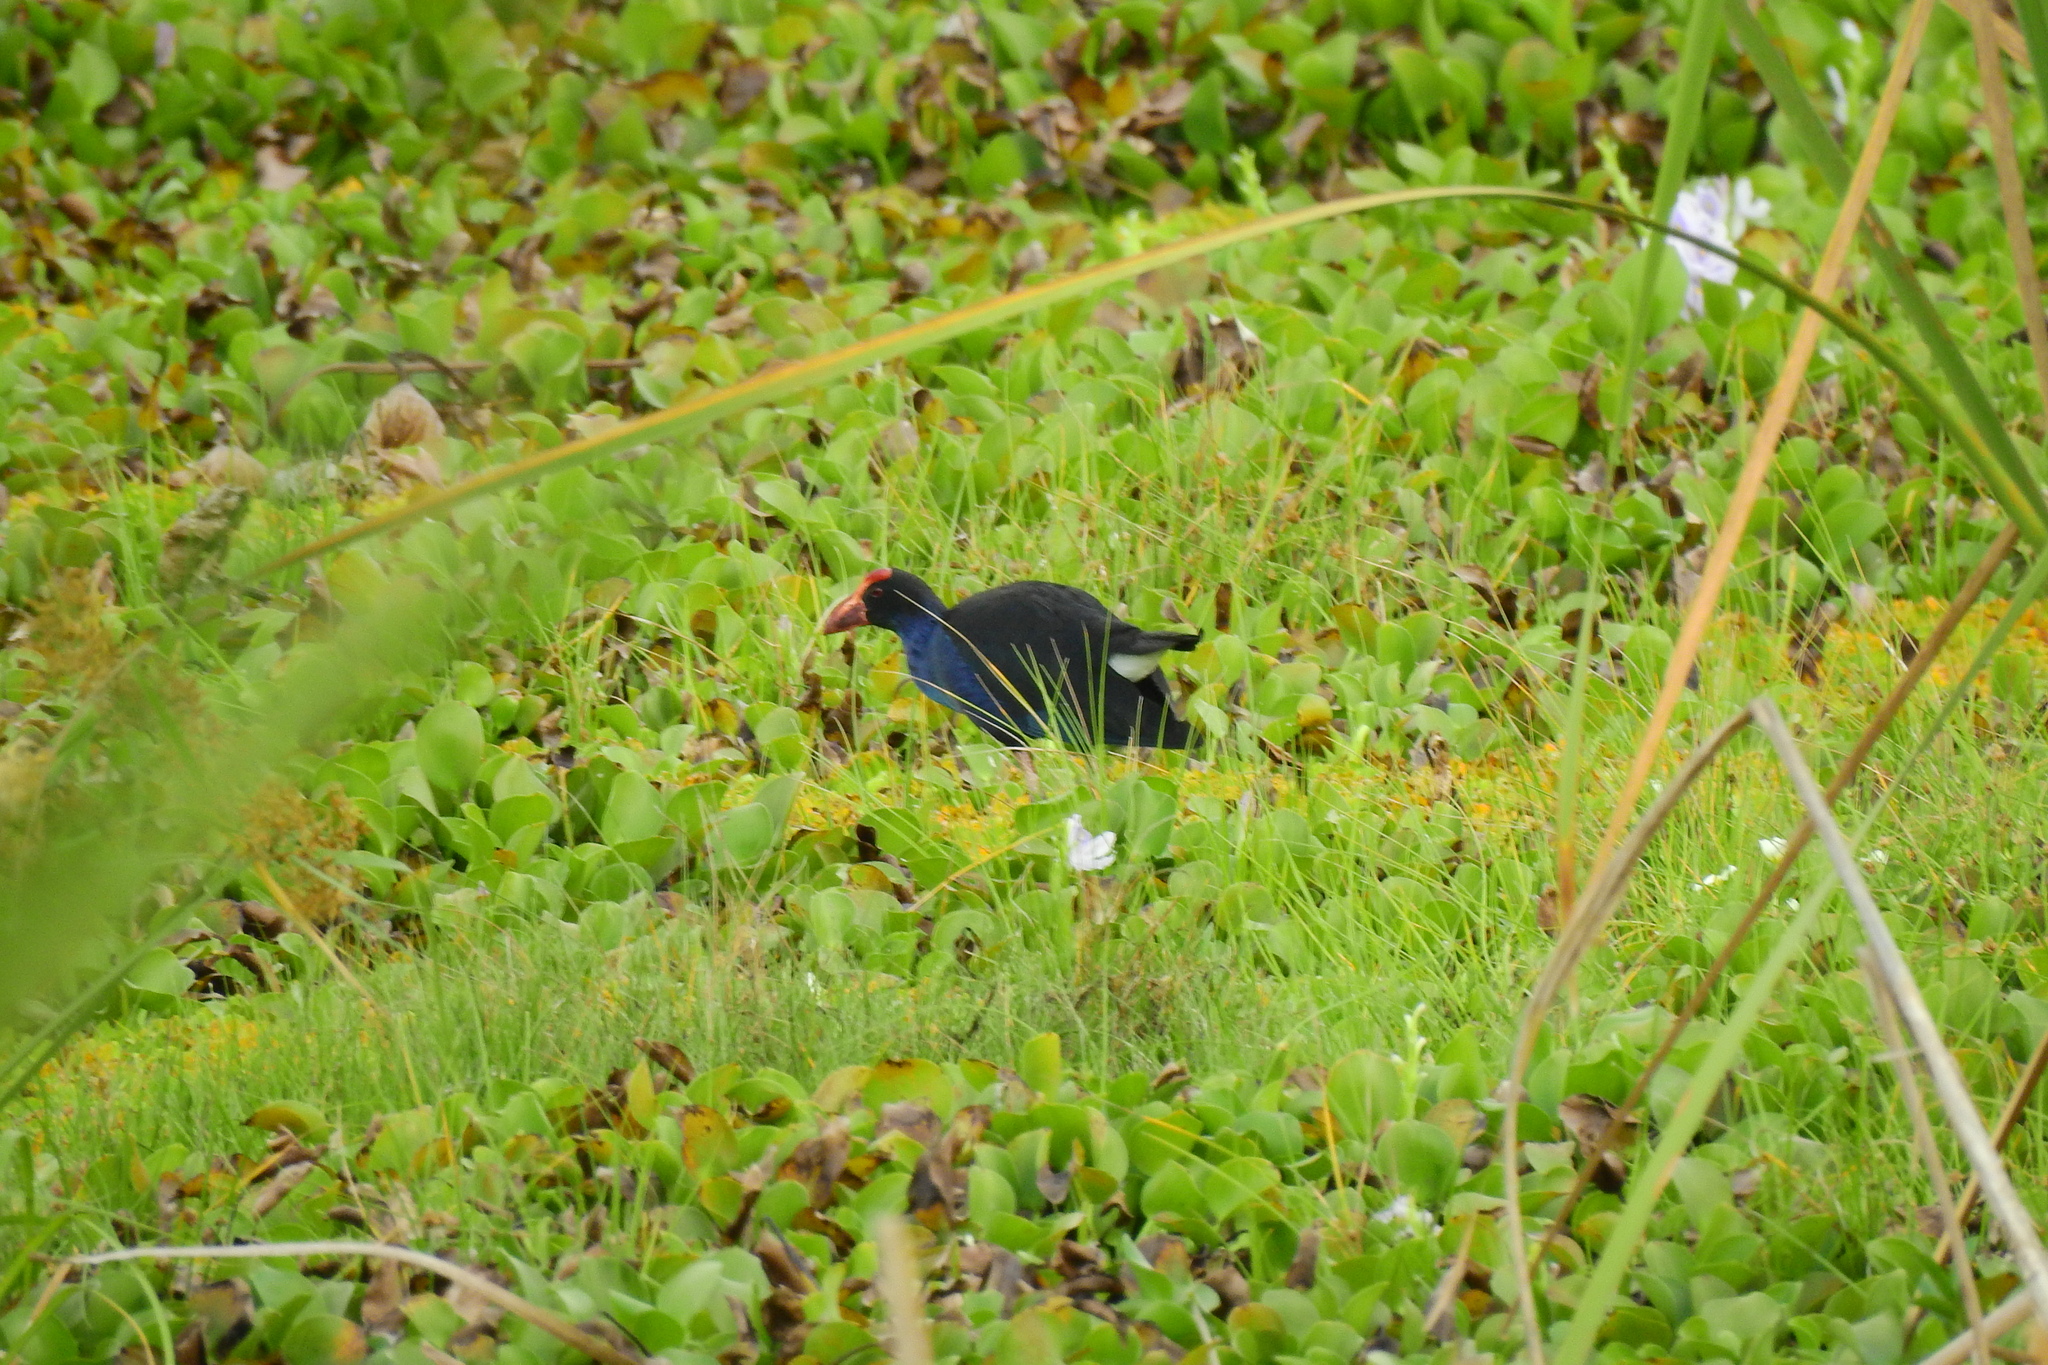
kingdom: Animalia
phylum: Chordata
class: Aves
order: Gruiformes
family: Rallidae
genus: Porphyrio
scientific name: Porphyrio melanotus
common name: Australasian swamphen
